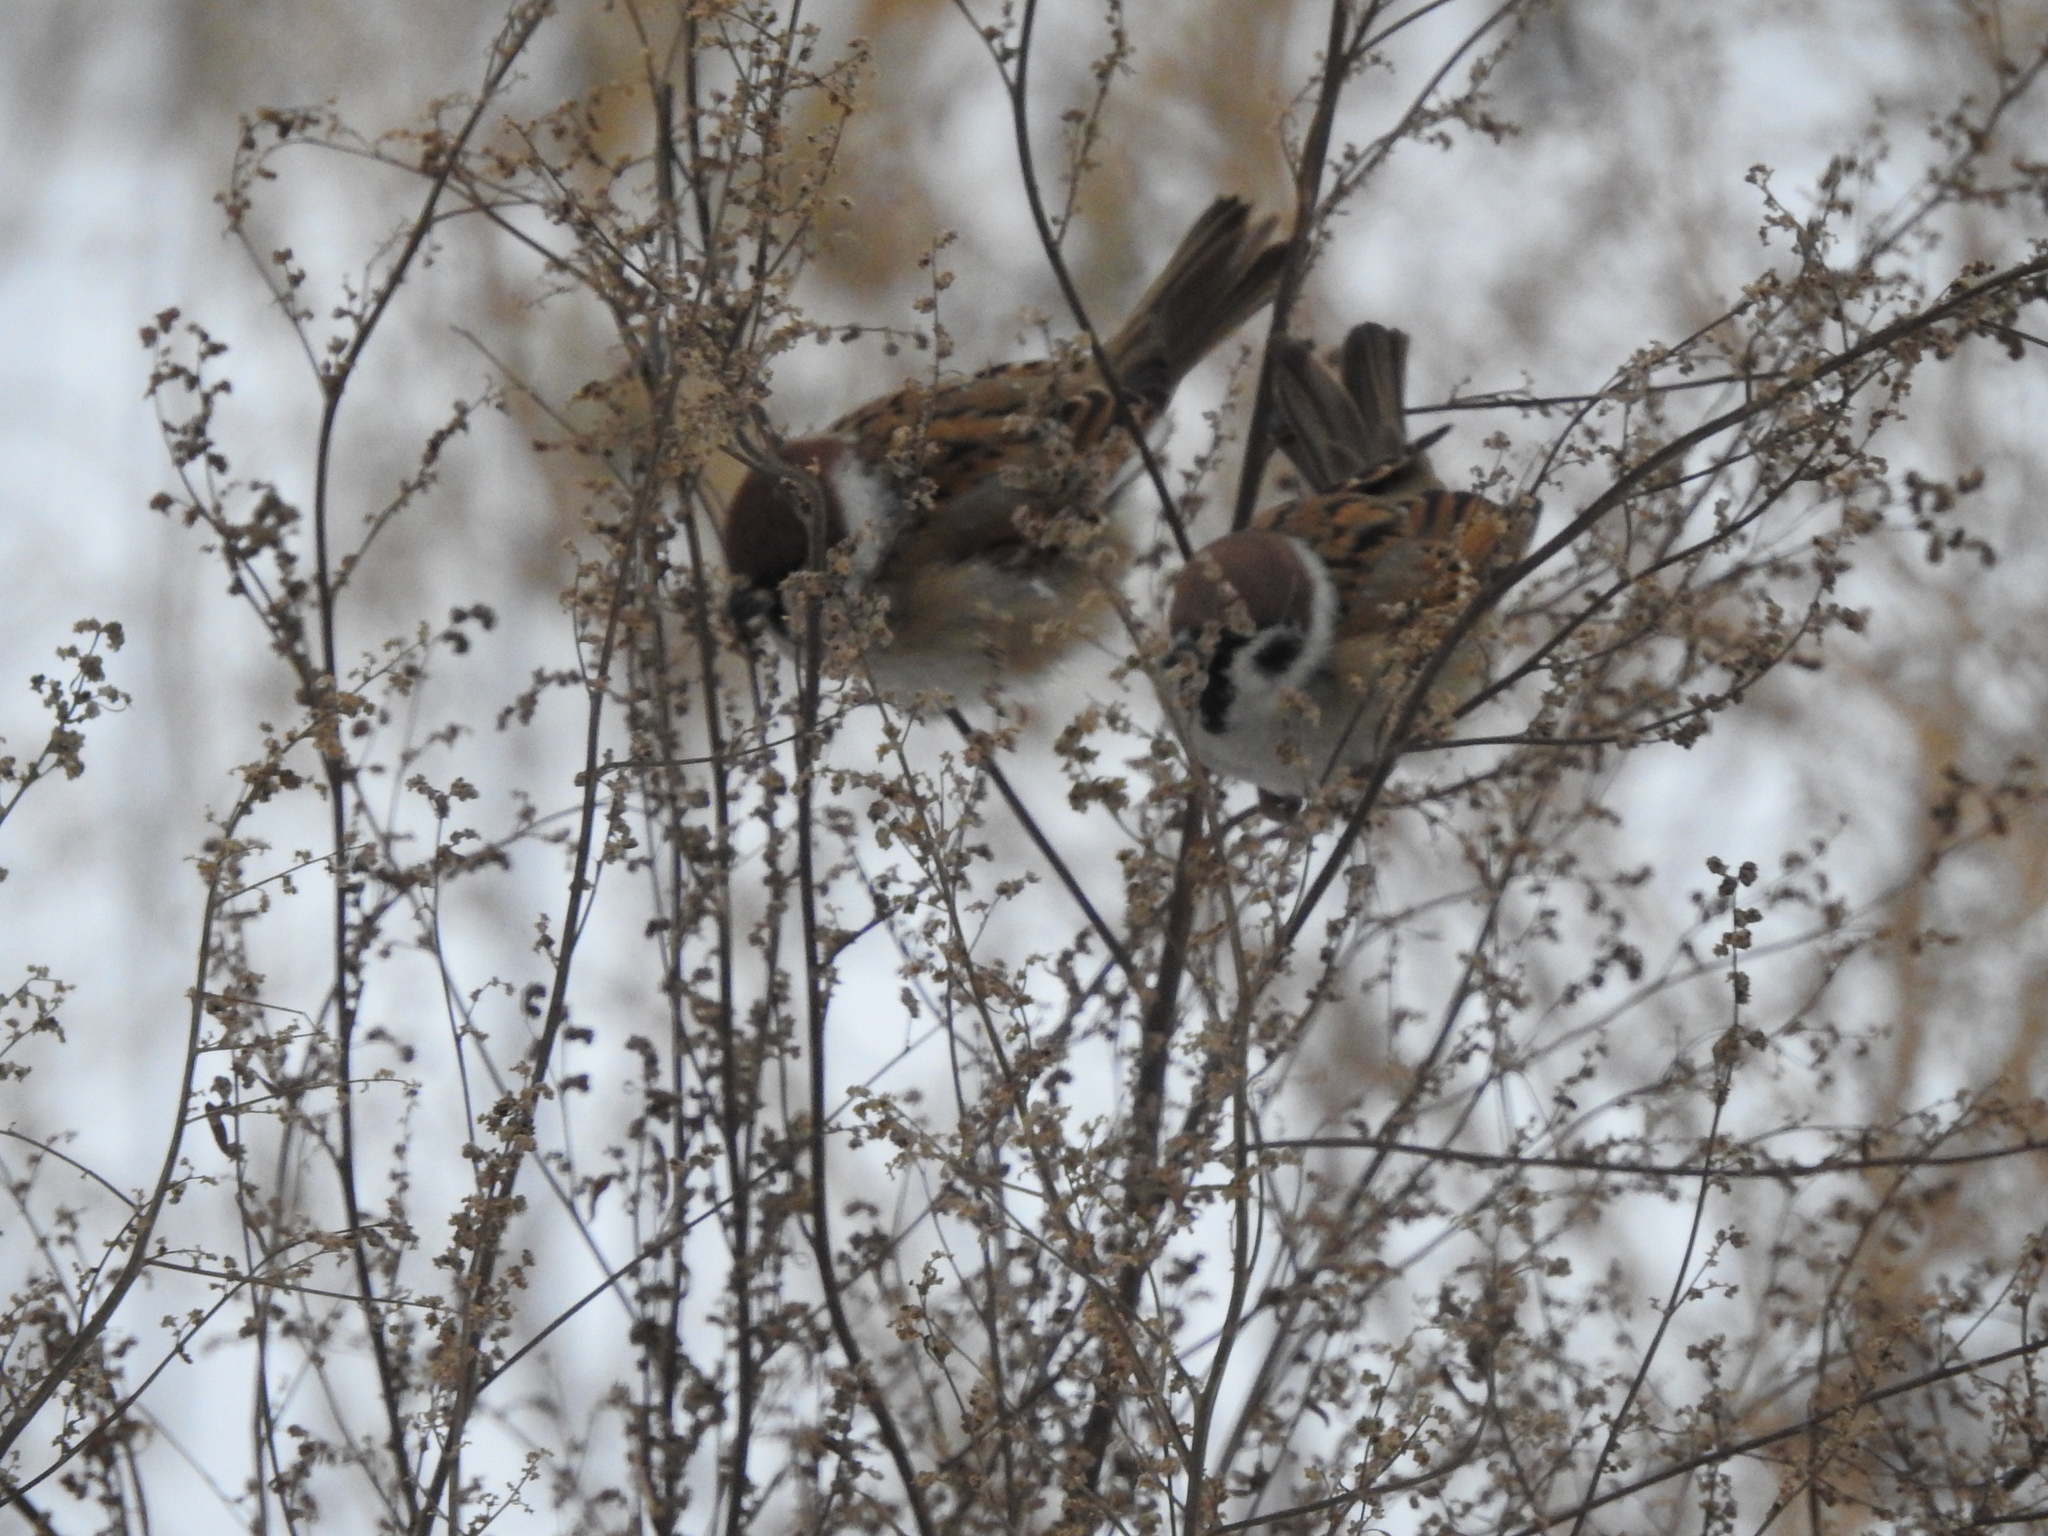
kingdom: Animalia
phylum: Chordata
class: Aves
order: Passeriformes
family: Passeridae
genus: Passer
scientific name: Passer montanus
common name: Eurasian tree sparrow
